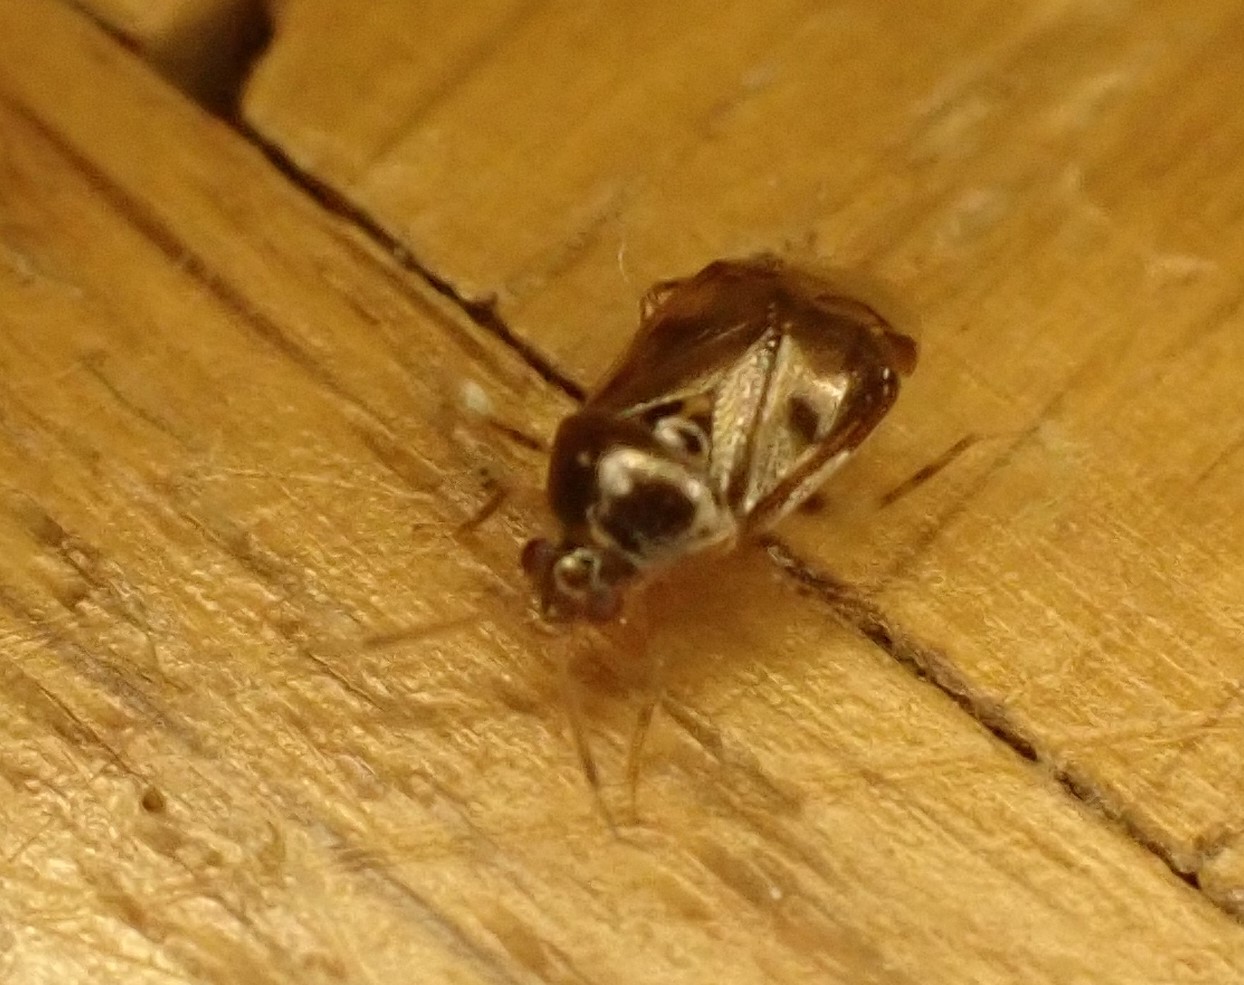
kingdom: Animalia
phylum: Arthropoda
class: Insecta
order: Hemiptera
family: Miridae
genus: Deraeocoris
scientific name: Deraeocoris lutescens
